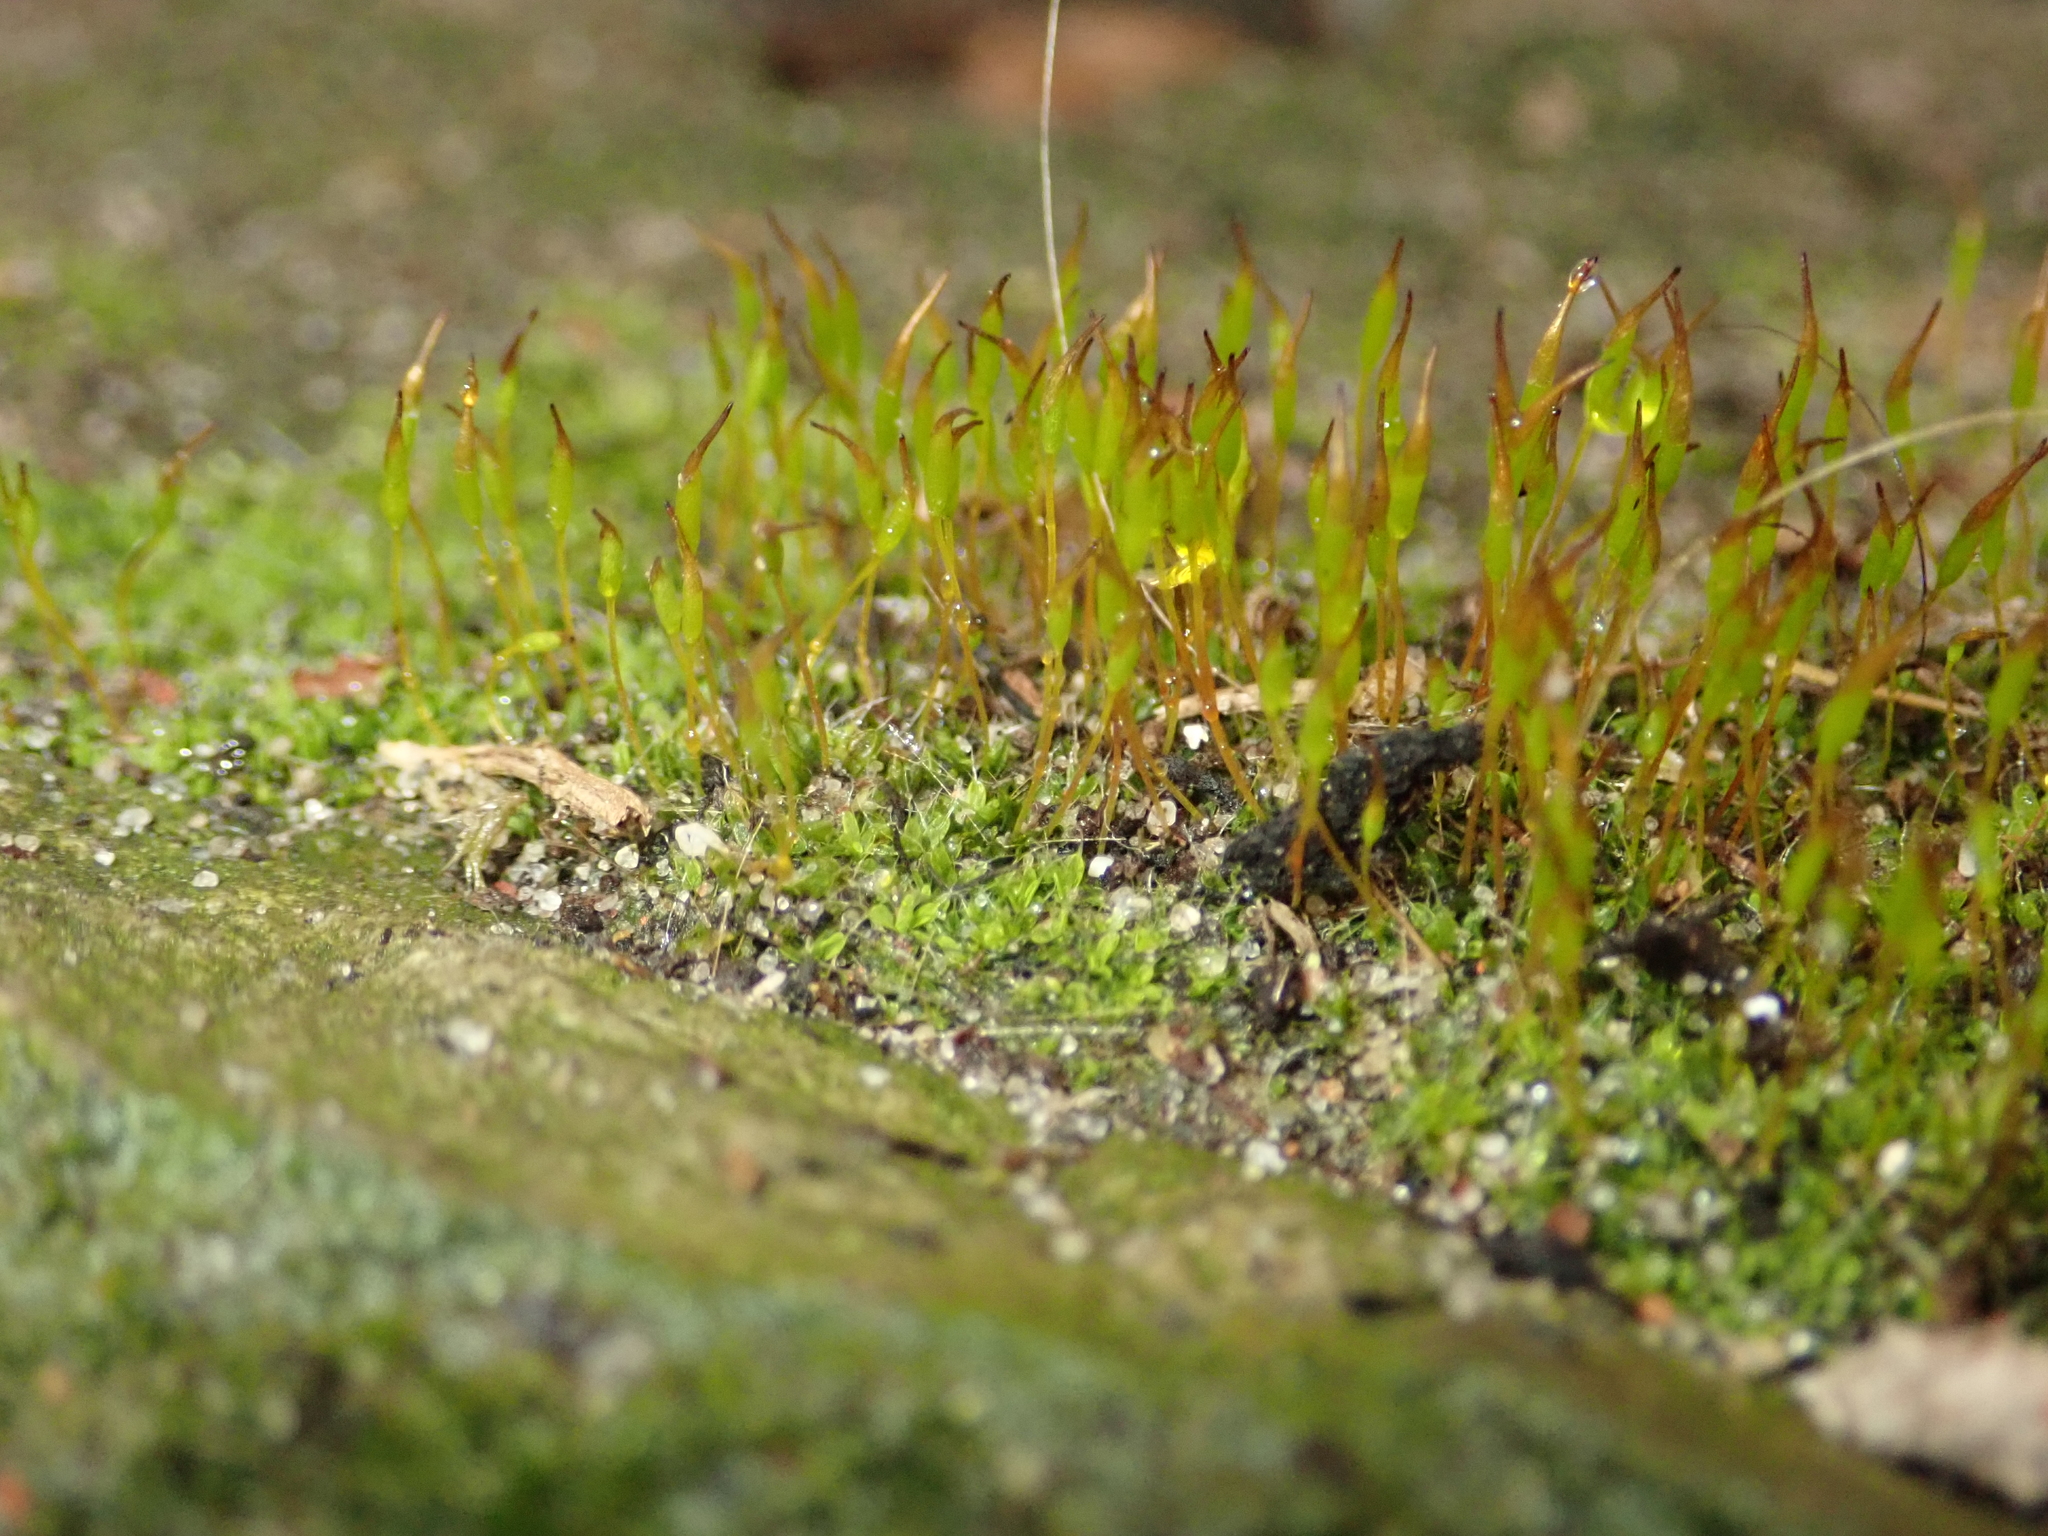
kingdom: Plantae
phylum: Bryophyta
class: Bryopsida
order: Pottiales
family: Pottiaceae
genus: Tortula
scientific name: Tortula muralis
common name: Wall screw-moss
